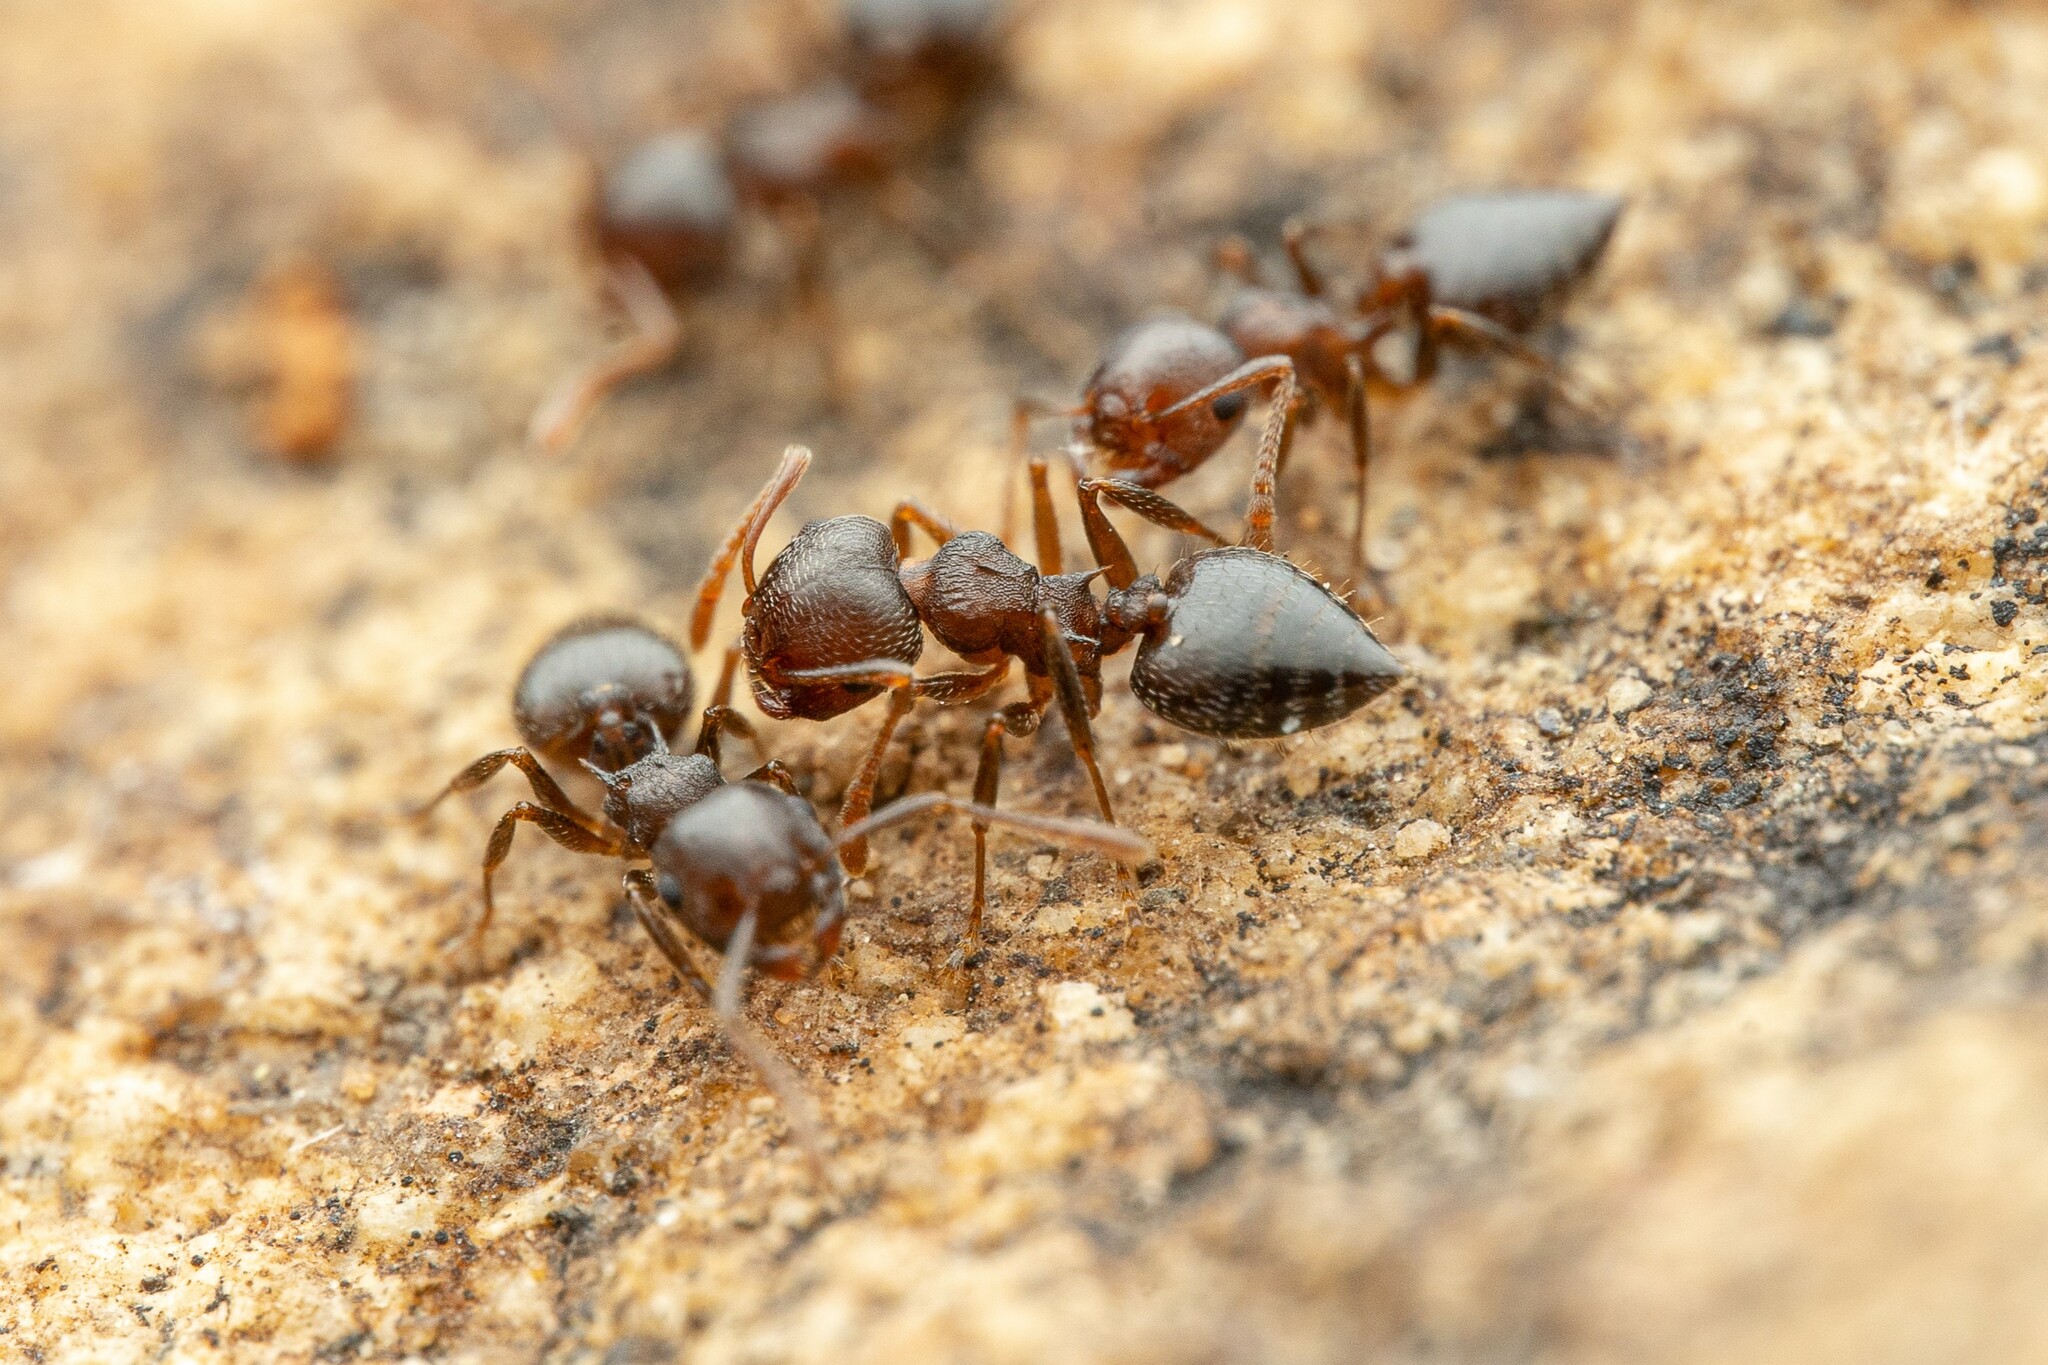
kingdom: Animalia
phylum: Arthropoda
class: Insecta
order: Hymenoptera
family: Formicidae
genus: Crematogaster
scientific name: Crematogaster dentinodis
